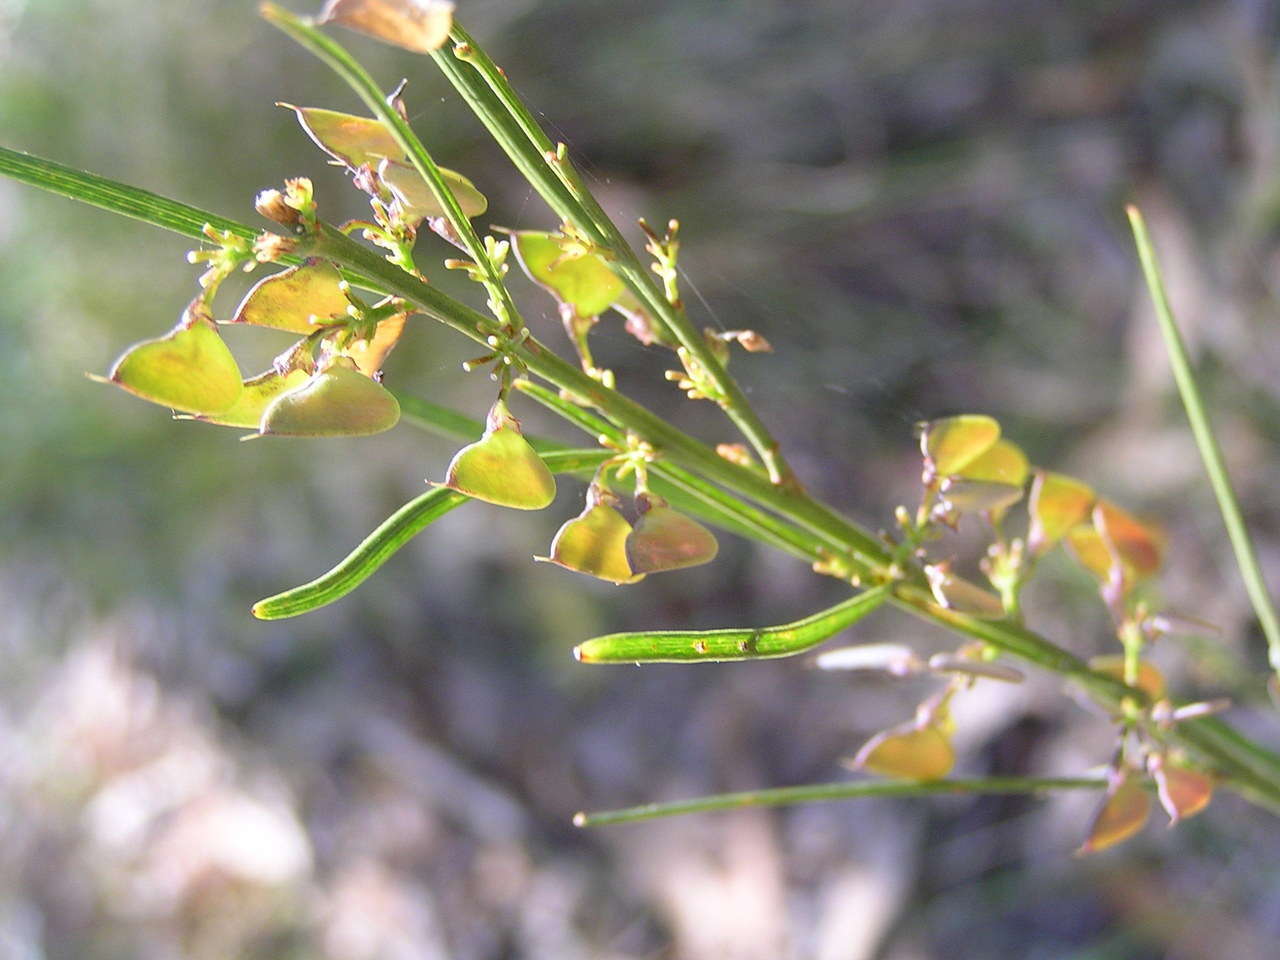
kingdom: Plantae
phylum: Tracheophyta
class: Magnoliopsida
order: Fabales
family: Fabaceae
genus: Daviesia
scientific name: Daviesia leptophylla
